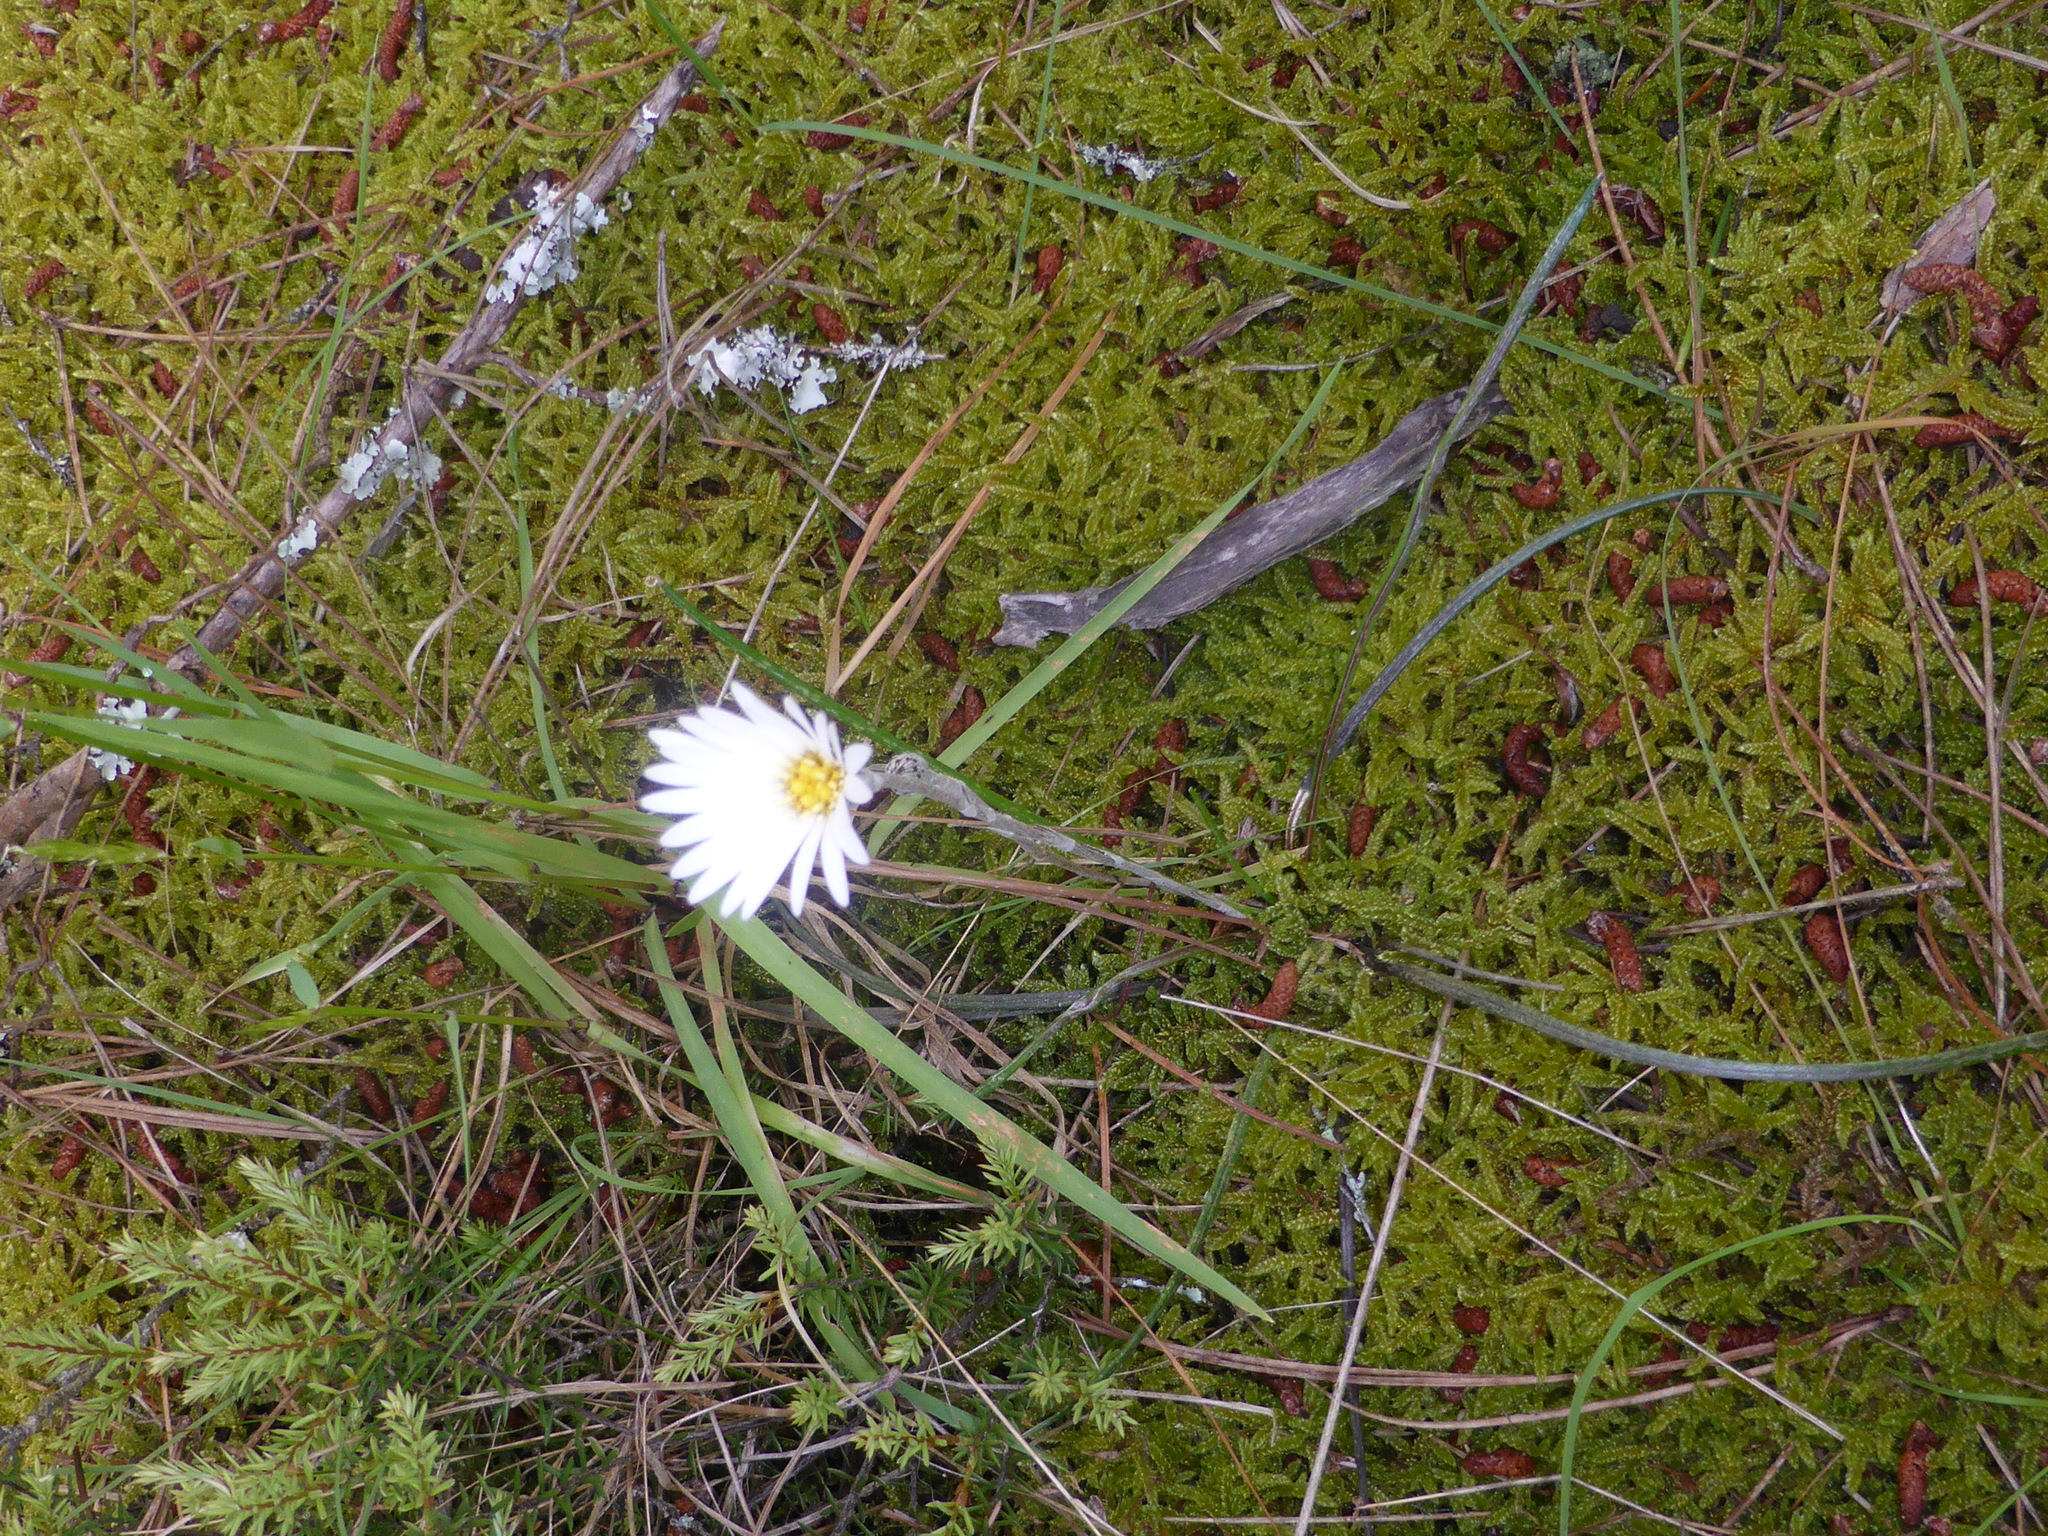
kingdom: Plantae
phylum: Tracheophyta
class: Magnoliopsida
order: Asterales
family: Asteraceae
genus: Celmisia
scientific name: Celmisia gracilenta
